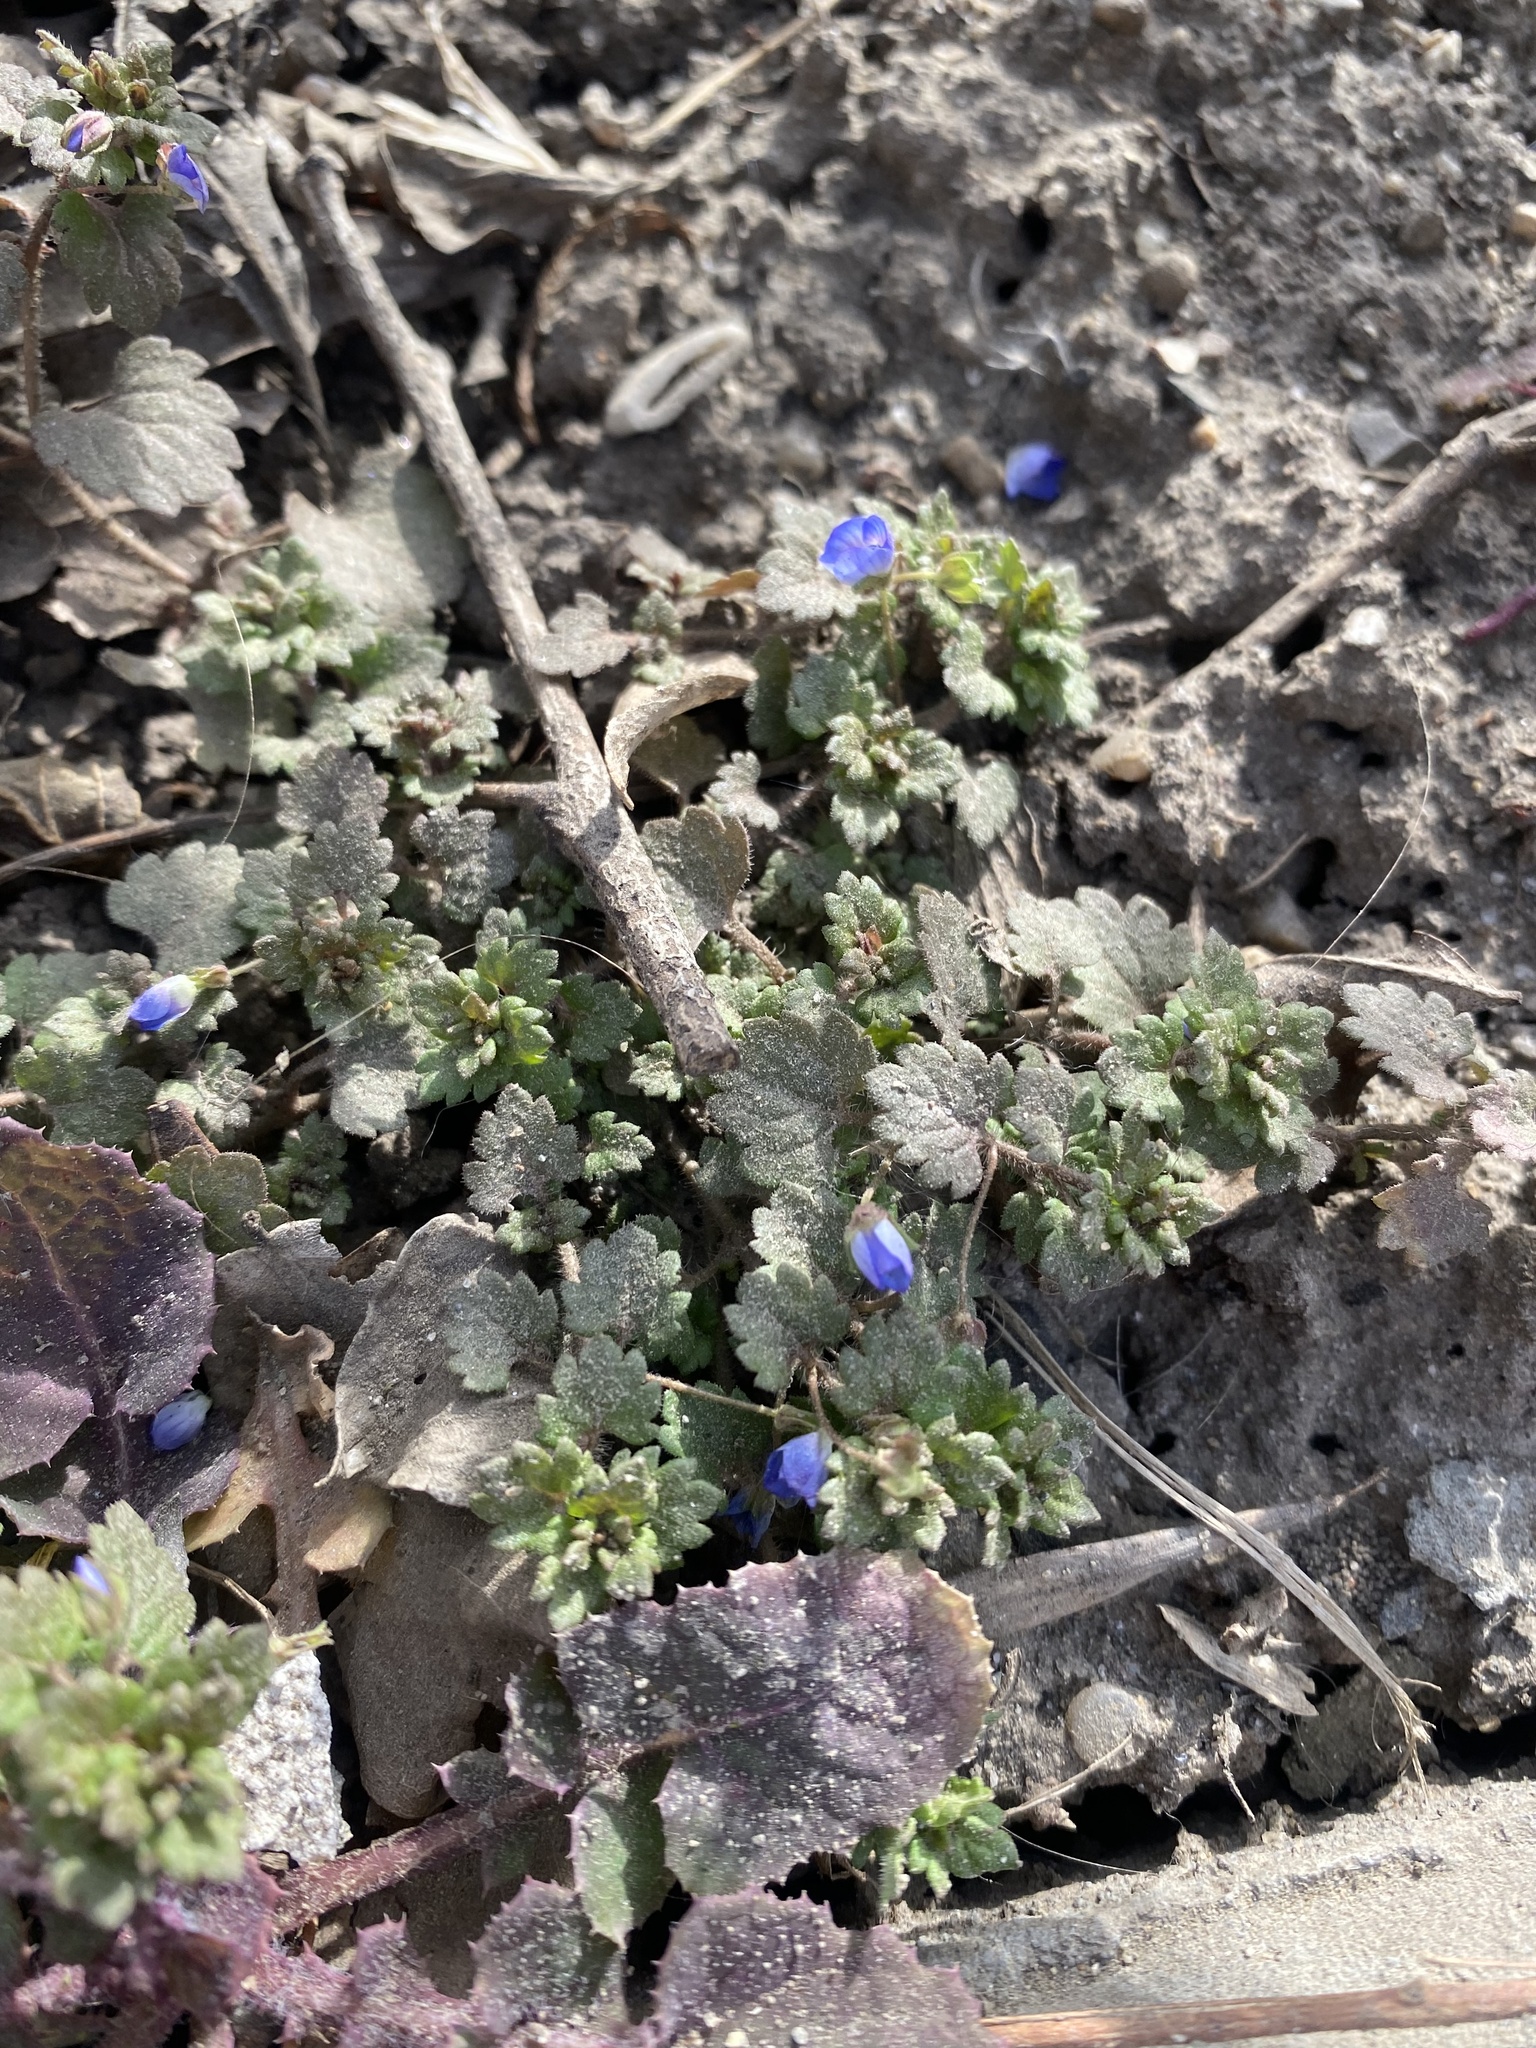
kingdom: Plantae
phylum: Tracheophyta
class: Magnoliopsida
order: Lamiales
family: Plantaginaceae
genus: Veronica
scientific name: Veronica polita
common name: Grey field-speedwell
